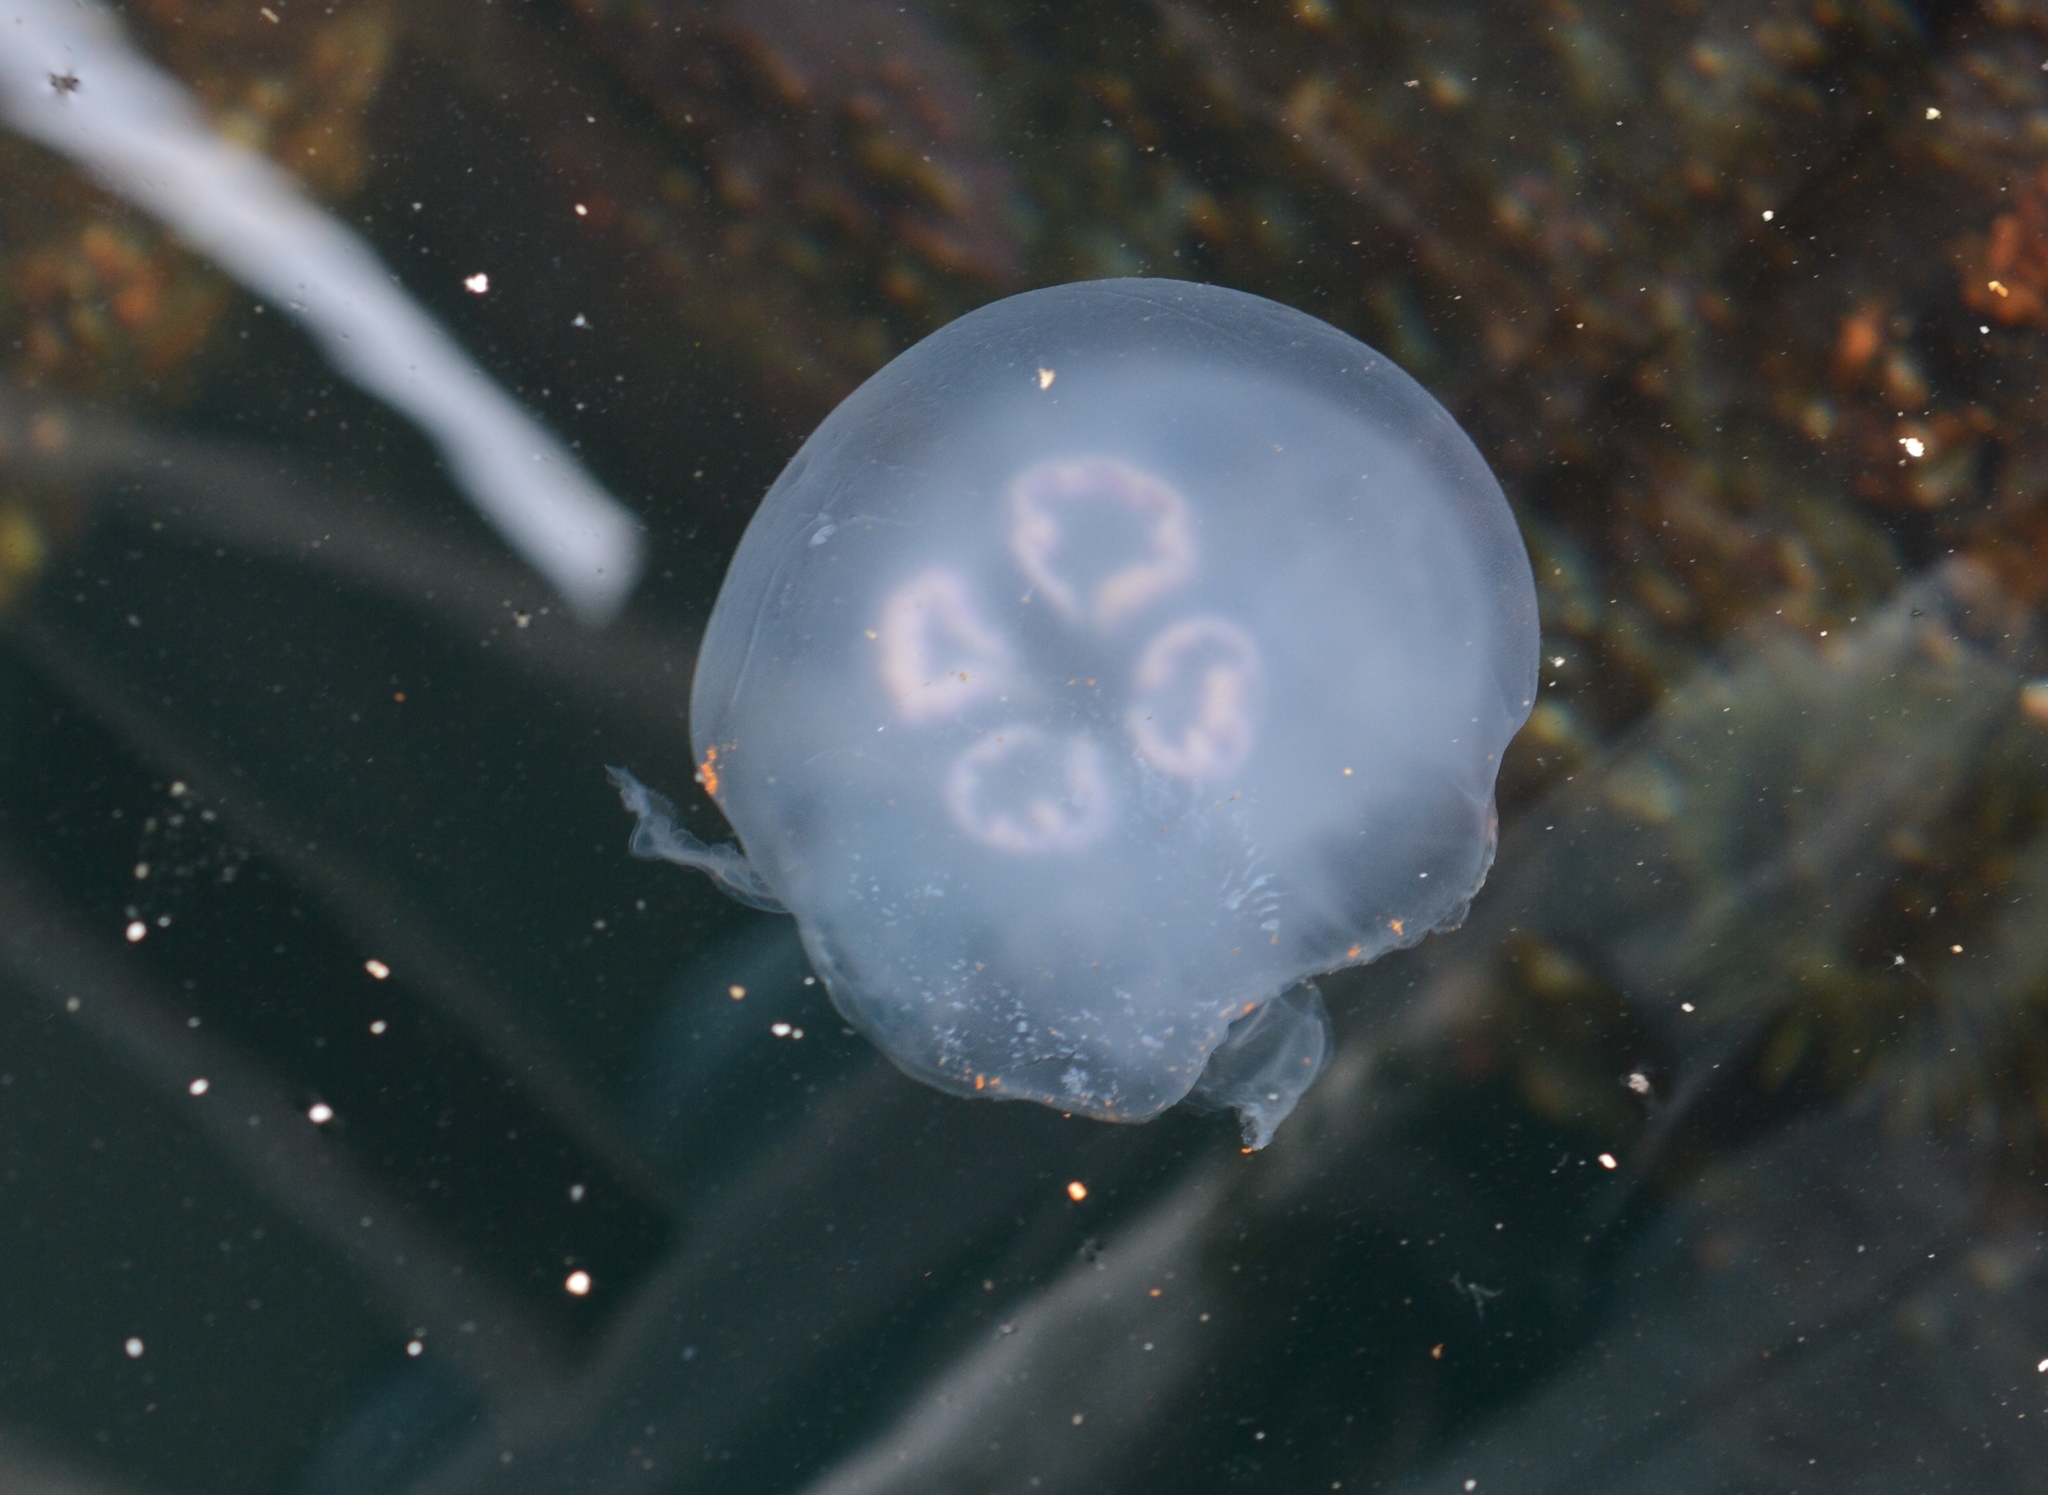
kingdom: Animalia
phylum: Cnidaria
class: Scyphozoa
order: Semaeostomeae
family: Ulmaridae
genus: Aurelia
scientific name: Aurelia labiata
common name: Pacific moon jelly
